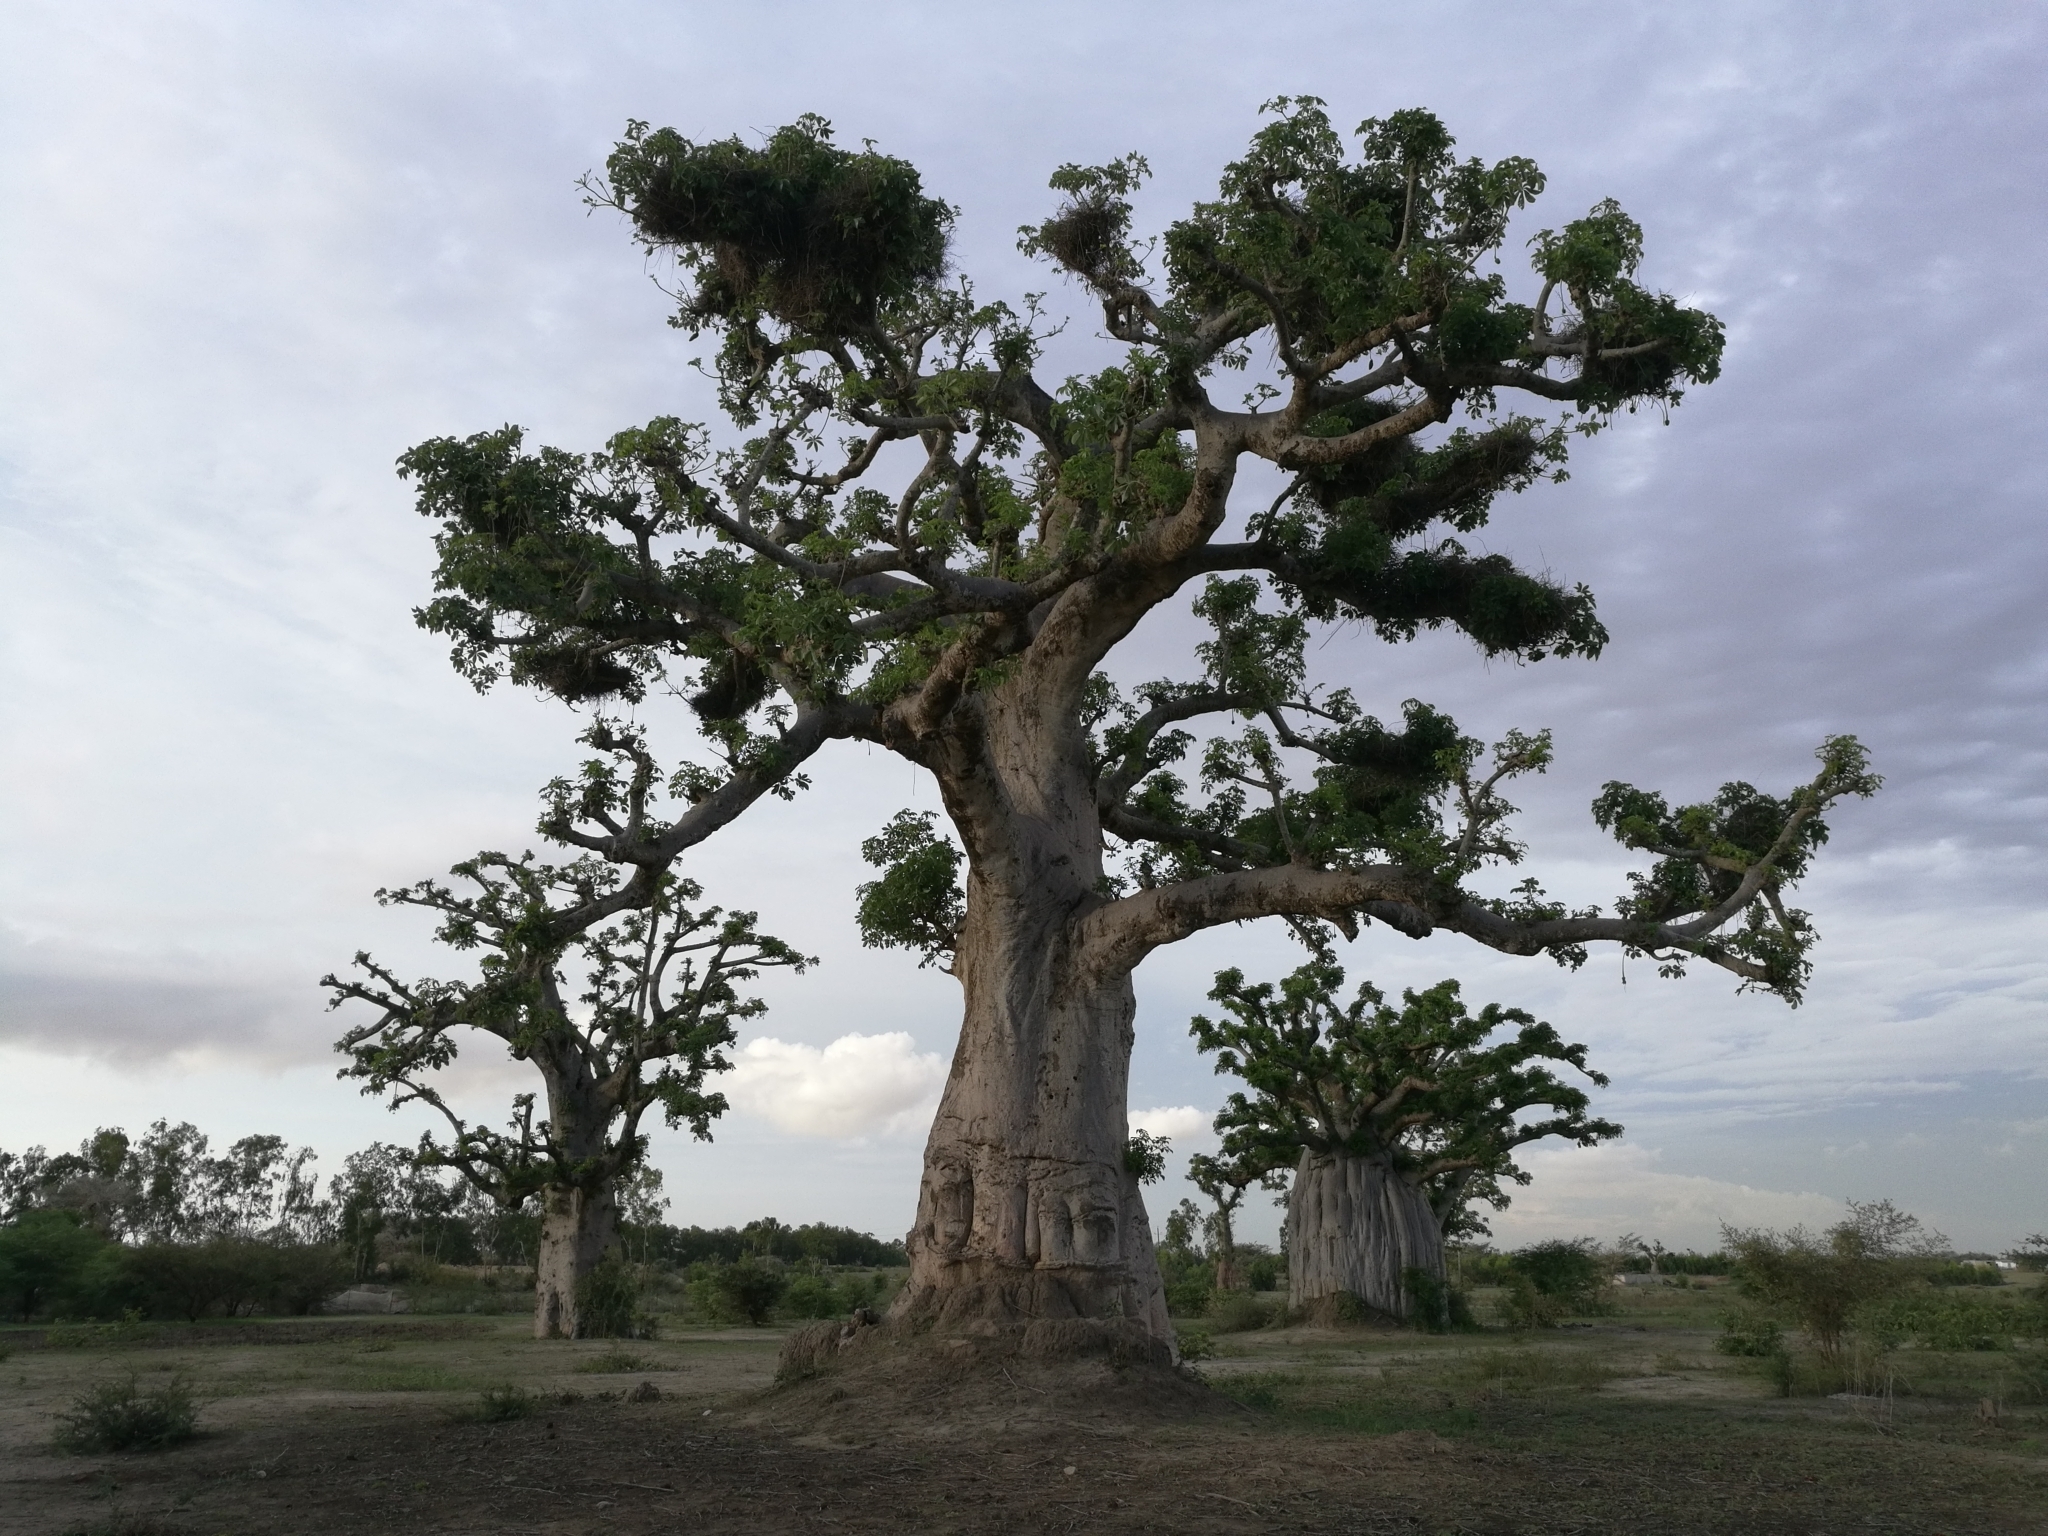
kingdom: Plantae
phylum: Tracheophyta
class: Magnoliopsida
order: Malvales
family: Malvaceae
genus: Adansonia
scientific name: Adansonia digitata
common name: Dead-rat-tree
